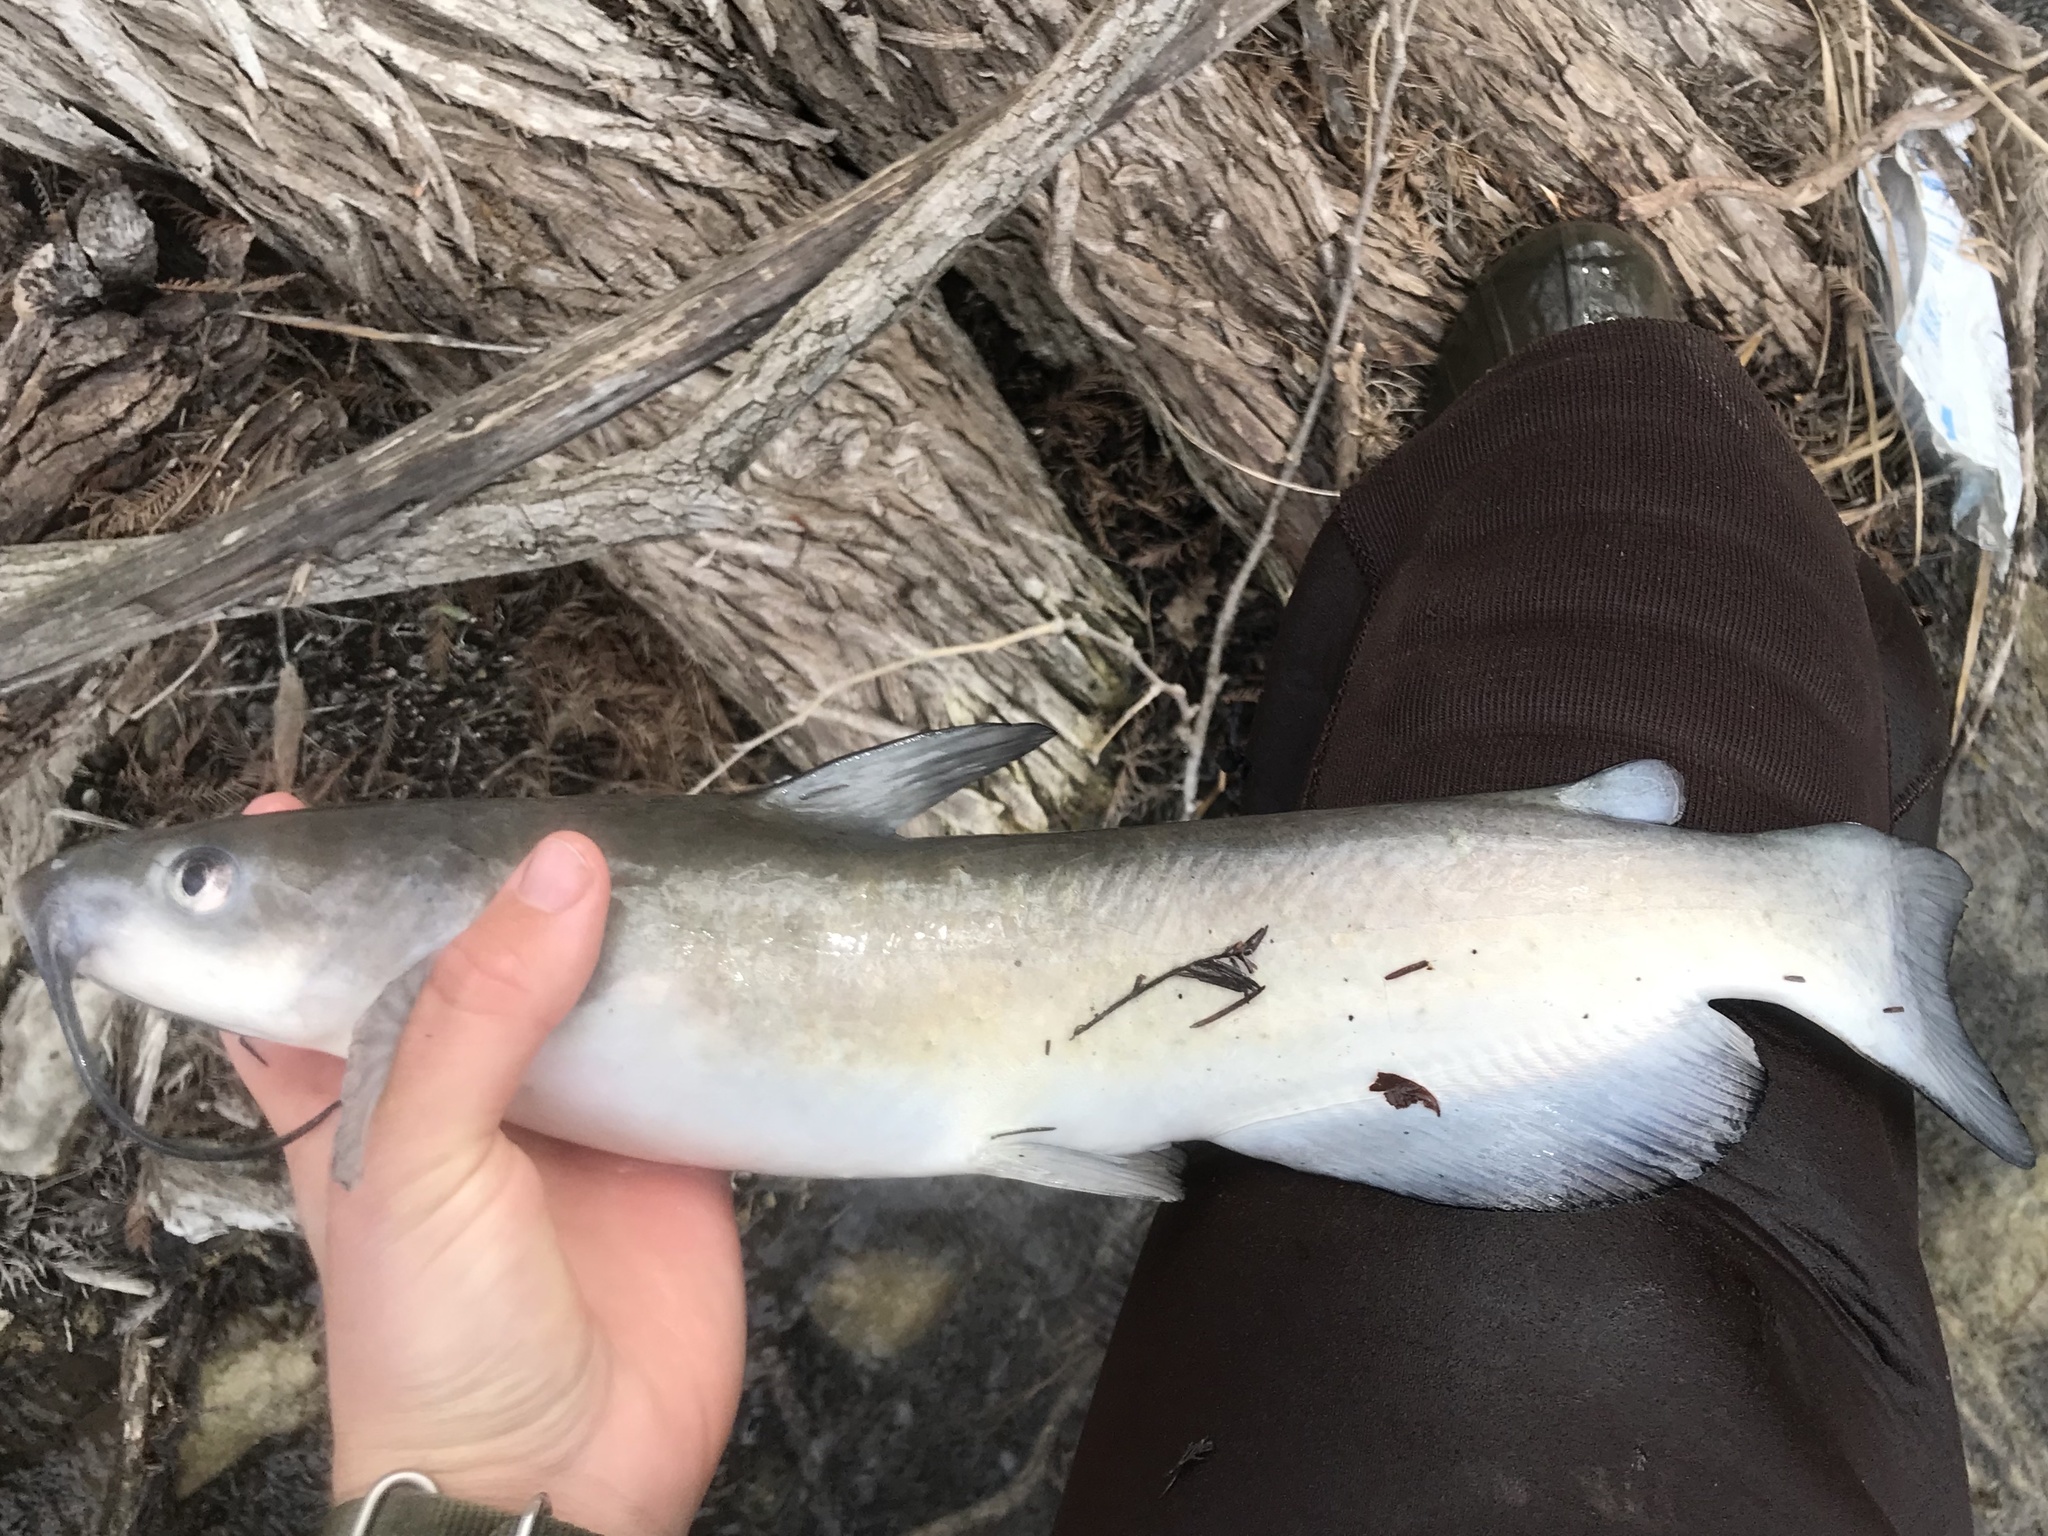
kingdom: Animalia
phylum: Chordata
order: Siluriformes
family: Ictaluridae
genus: Ictalurus
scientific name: Ictalurus punctatus
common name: Channel catfish
